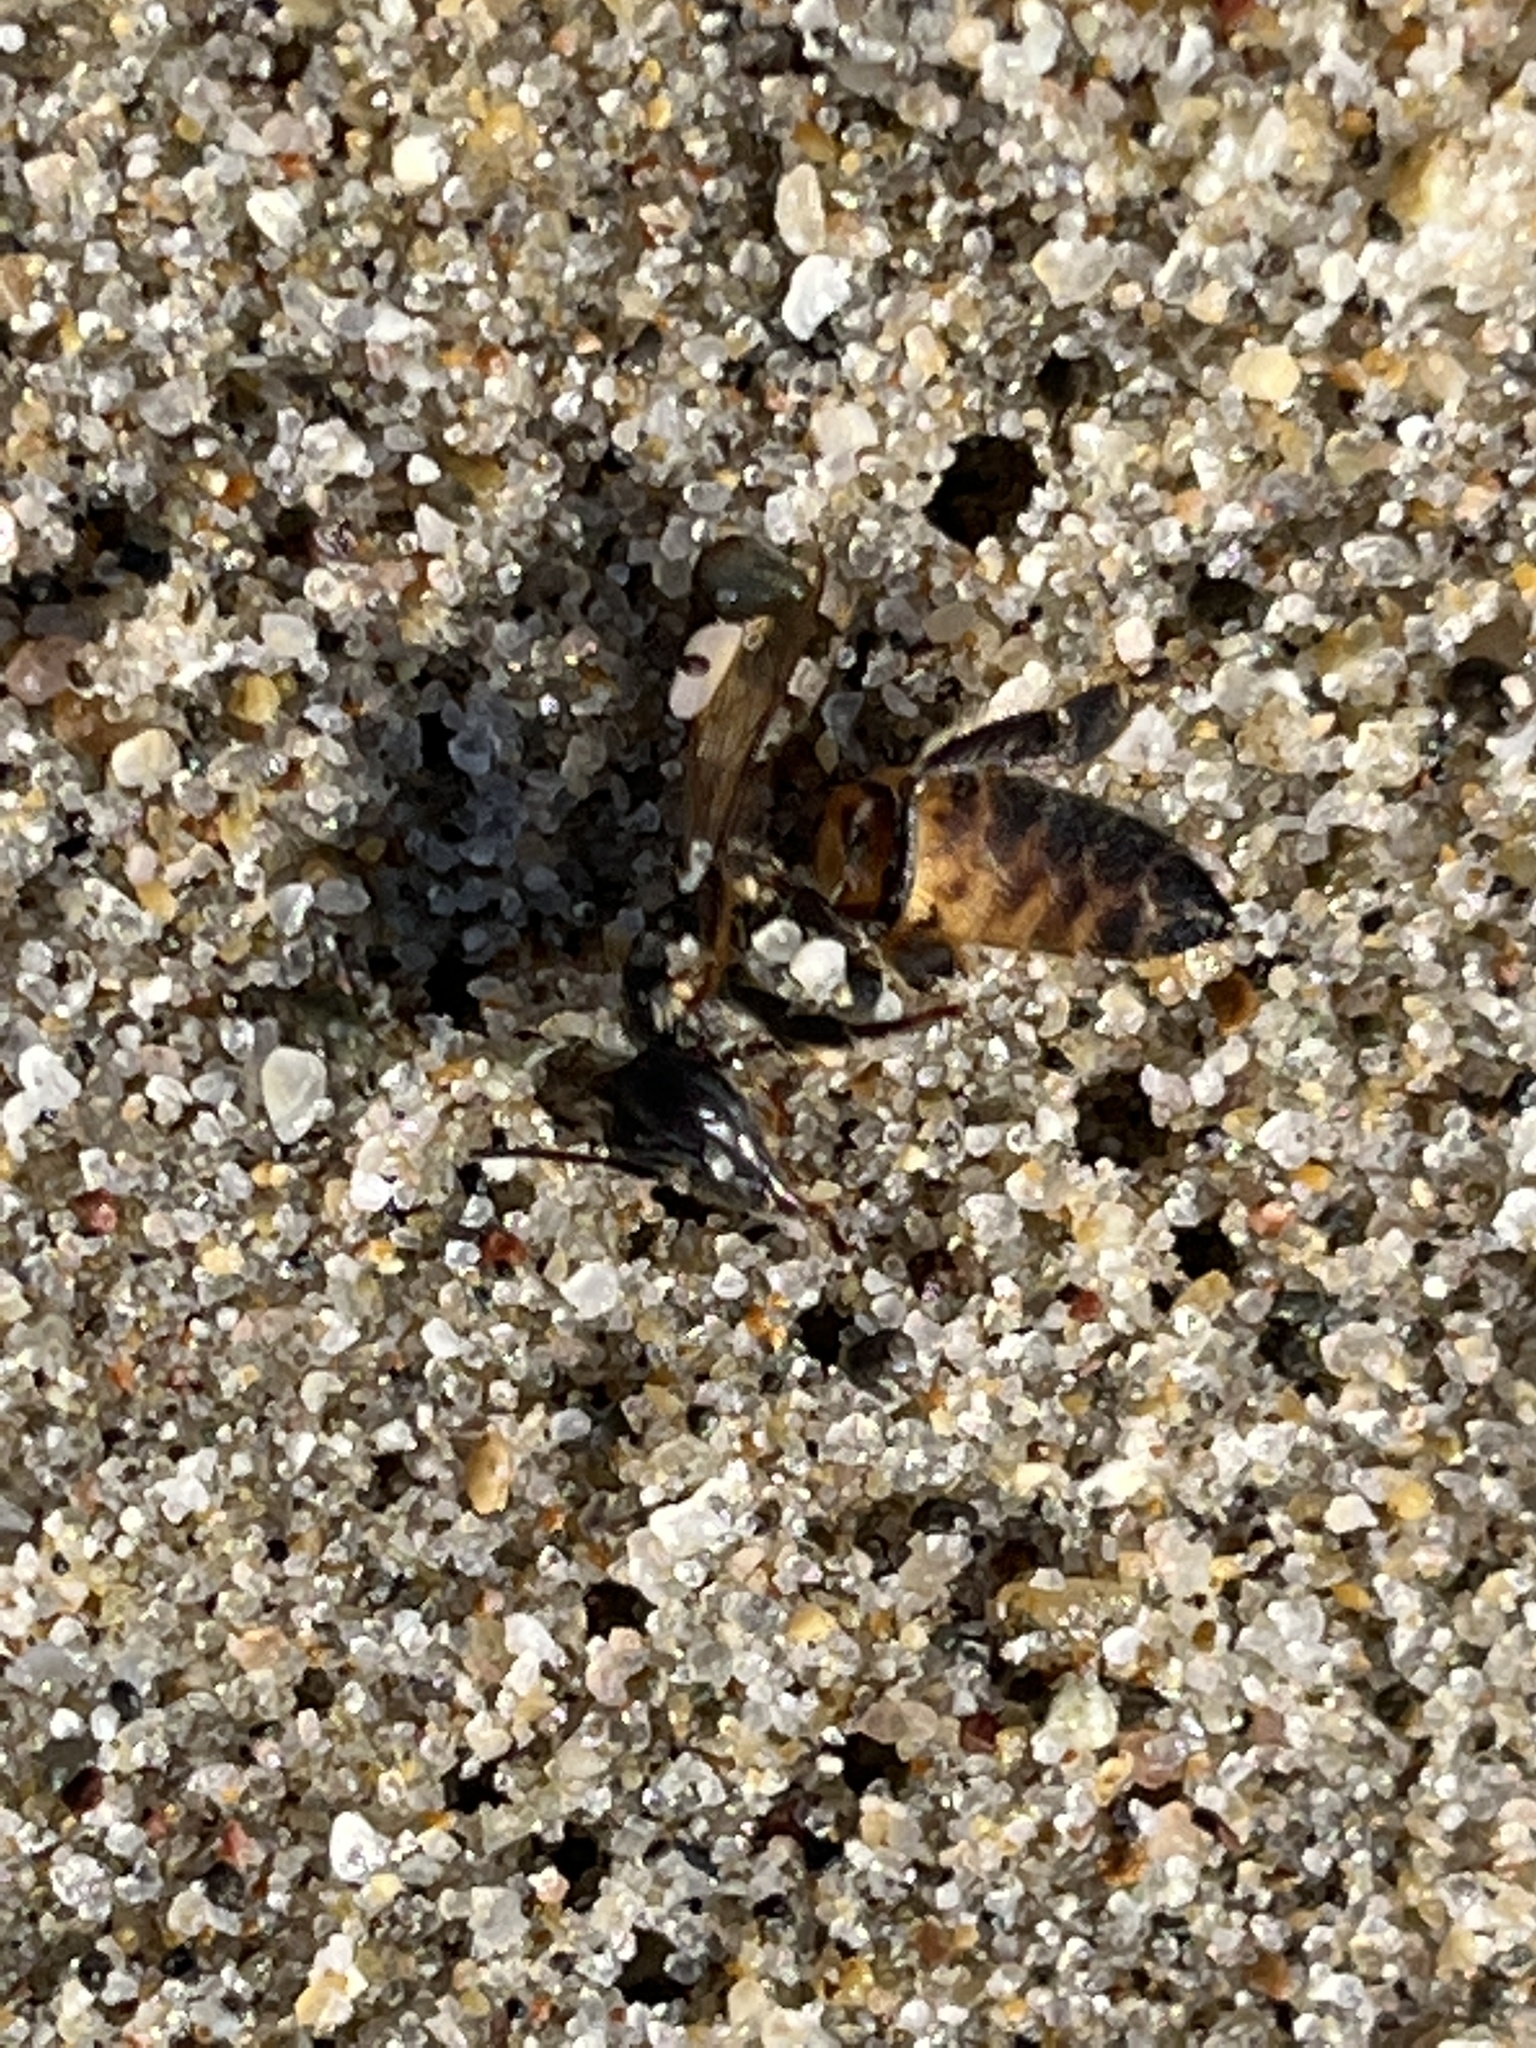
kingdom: Animalia
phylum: Arthropoda
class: Insecta
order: Hymenoptera
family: Apidae
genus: Apis
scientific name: Apis mellifera
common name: Honey bee
